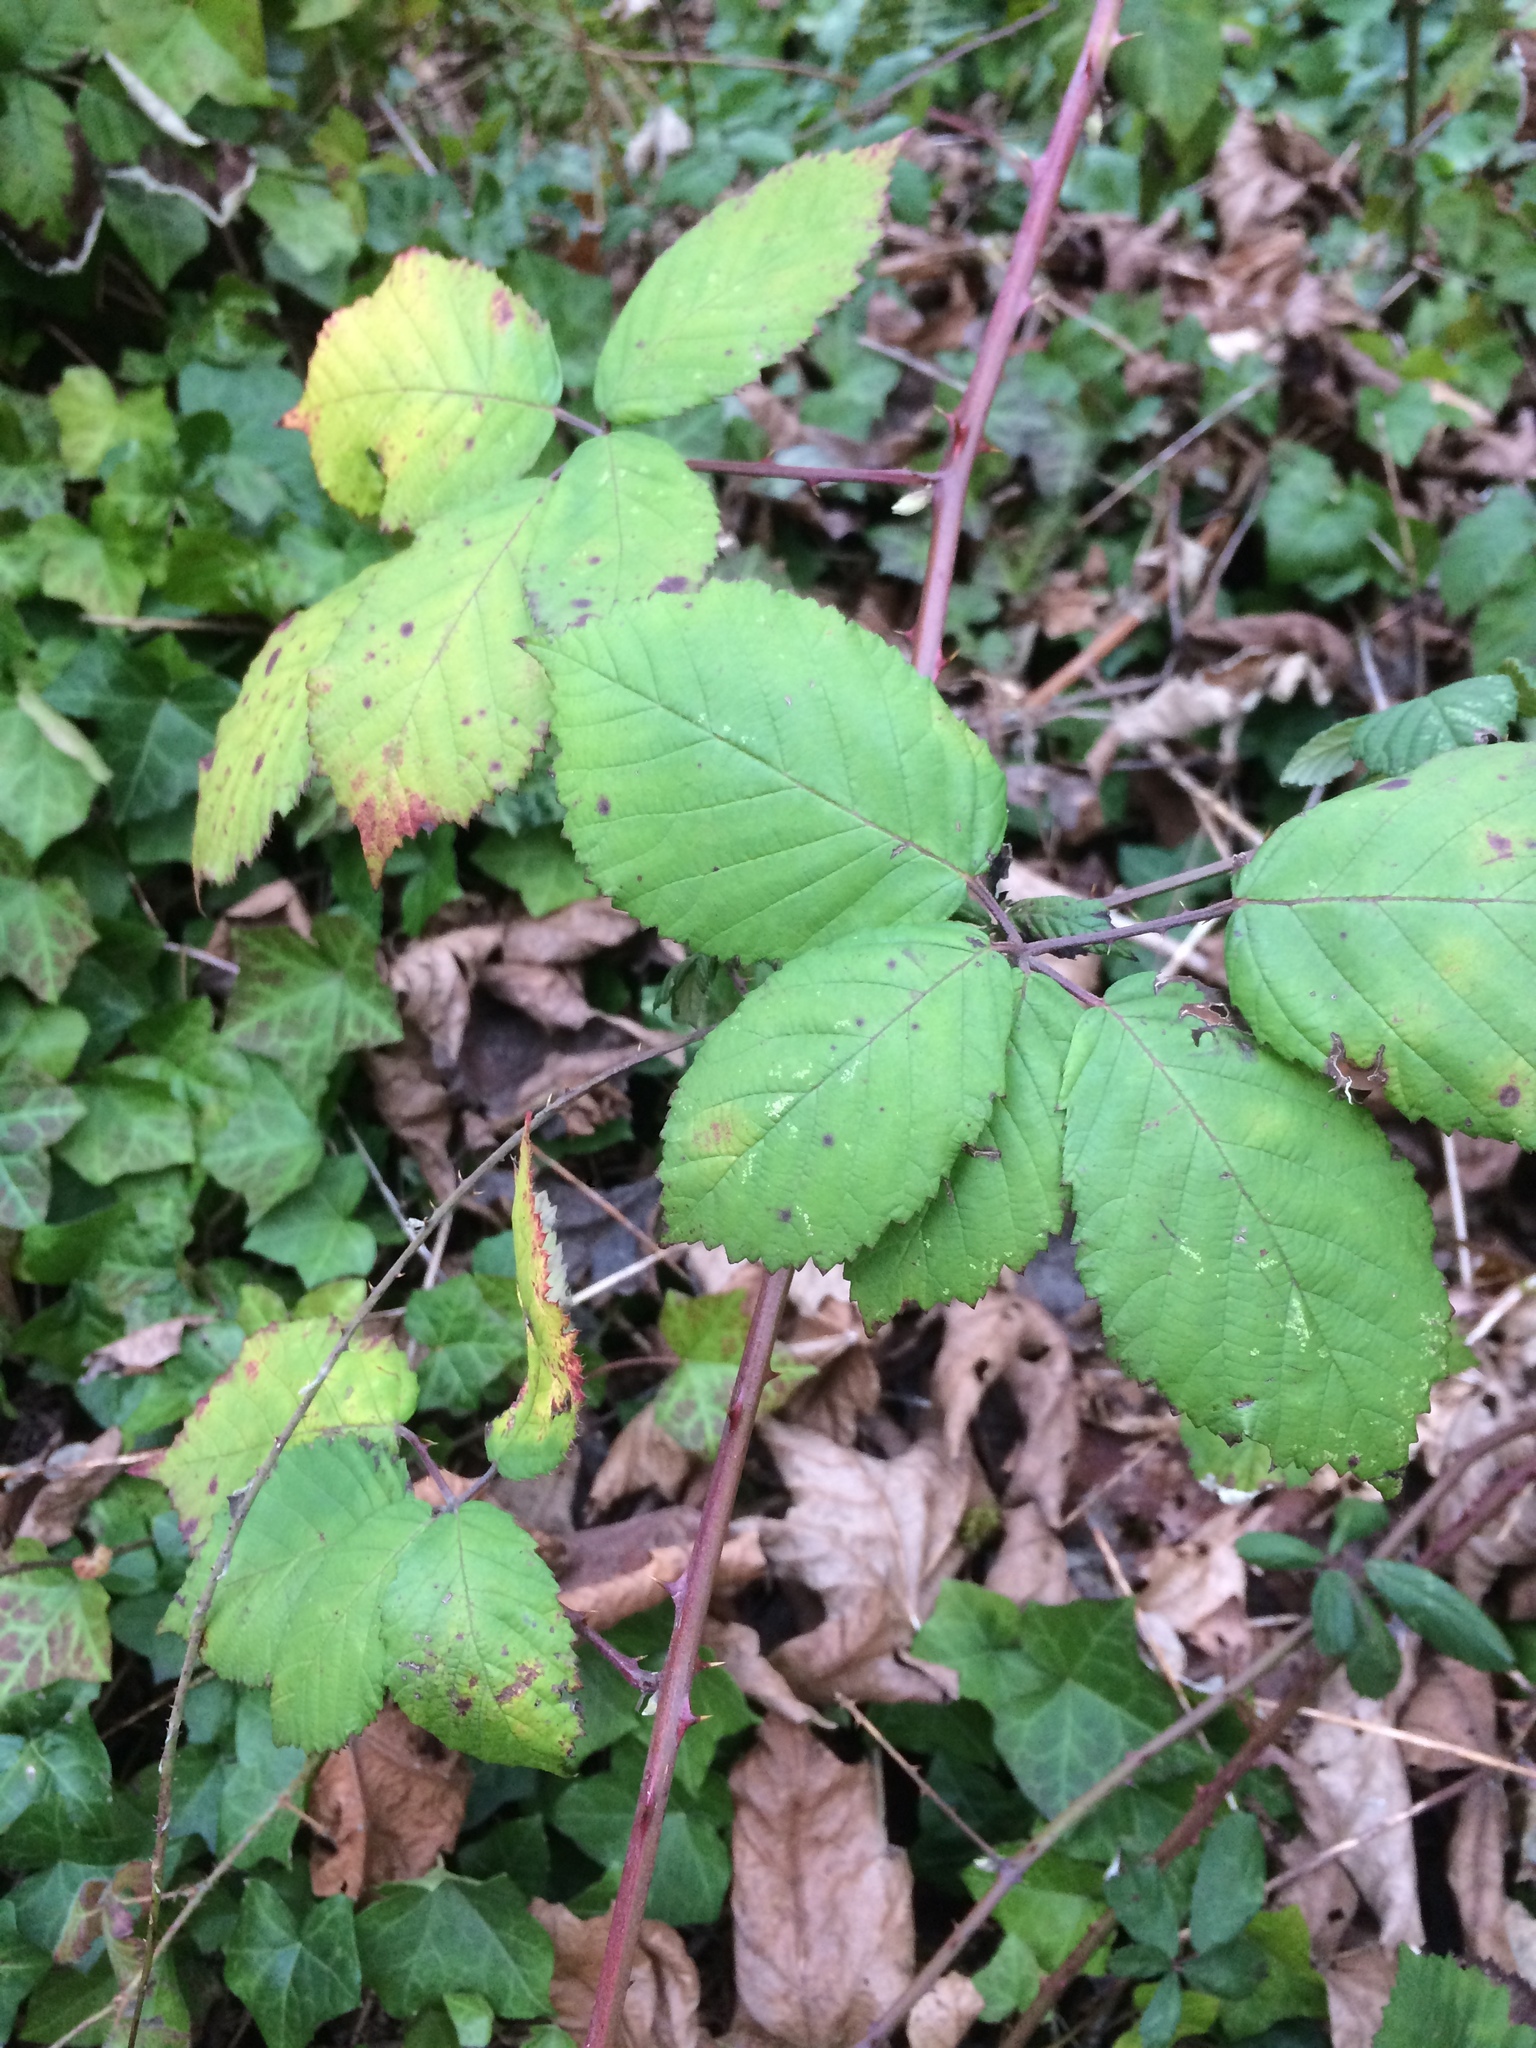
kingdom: Plantae
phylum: Tracheophyta
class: Magnoliopsida
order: Rosales
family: Rosaceae
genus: Rubus
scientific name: Rubus bifrons
